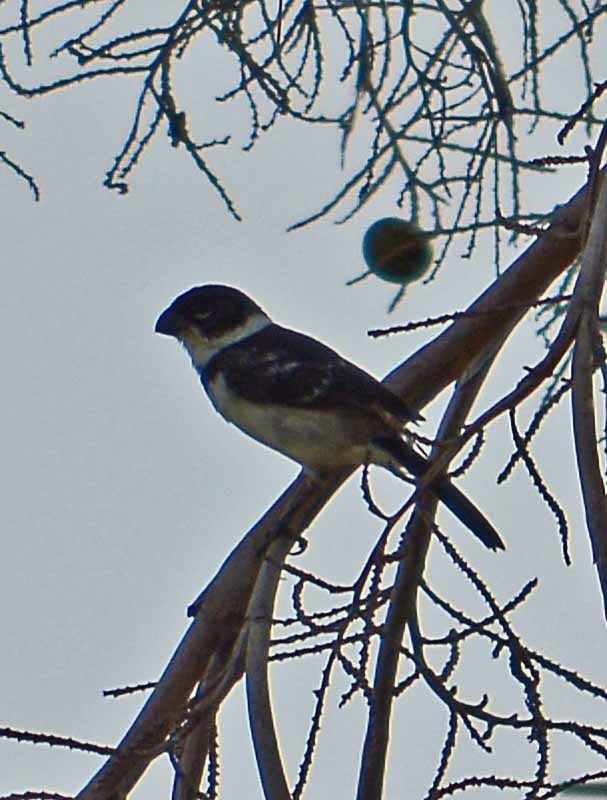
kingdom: Animalia
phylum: Chordata
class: Aves
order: Passeriformes
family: Thraupidae
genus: Sporophila
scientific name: Sporophila morelleti
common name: Morelet's seedeater
